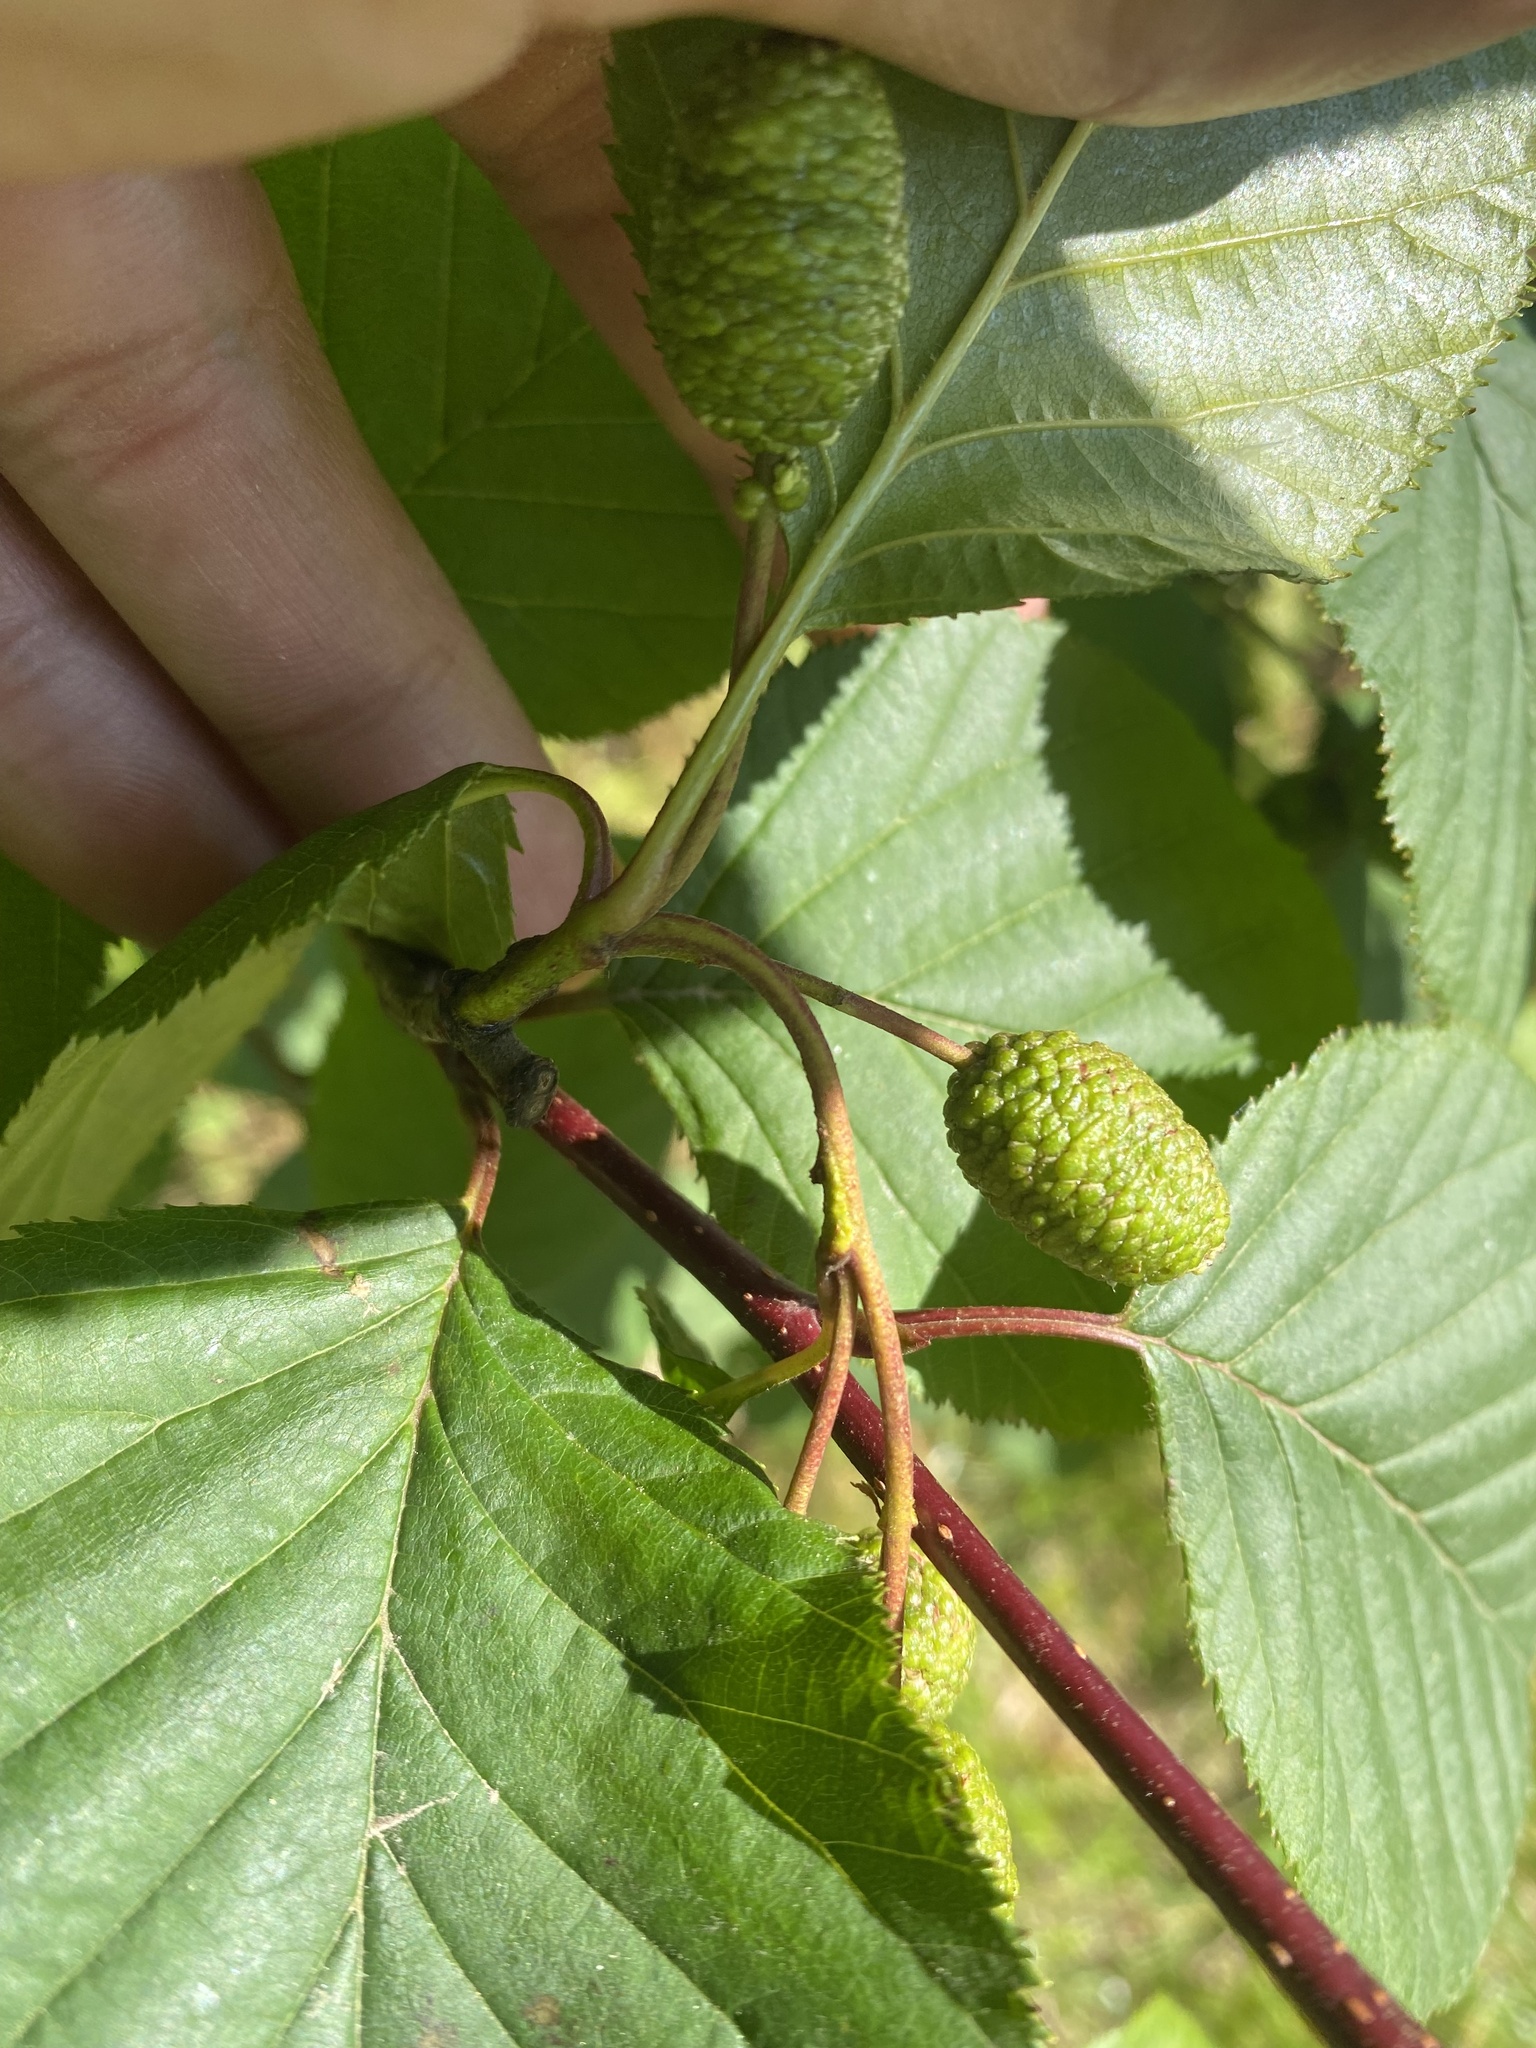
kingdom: Plantae
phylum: Tracheophyta
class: Magnoliopsida
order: Fagales
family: Betulaceae
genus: Alnus
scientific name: Alnus alnobetula
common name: Green alder
